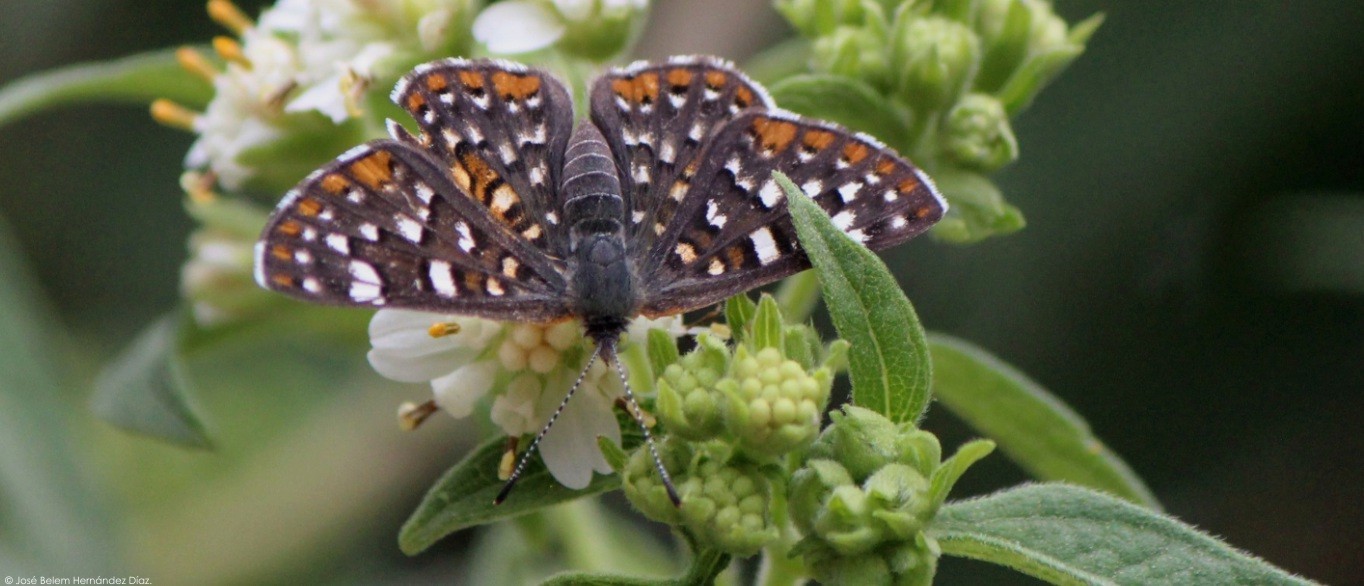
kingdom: Animalia
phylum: Arthropoda
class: Insecta
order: Lepidoptera
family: Riodinidae
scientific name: Riodinidae
